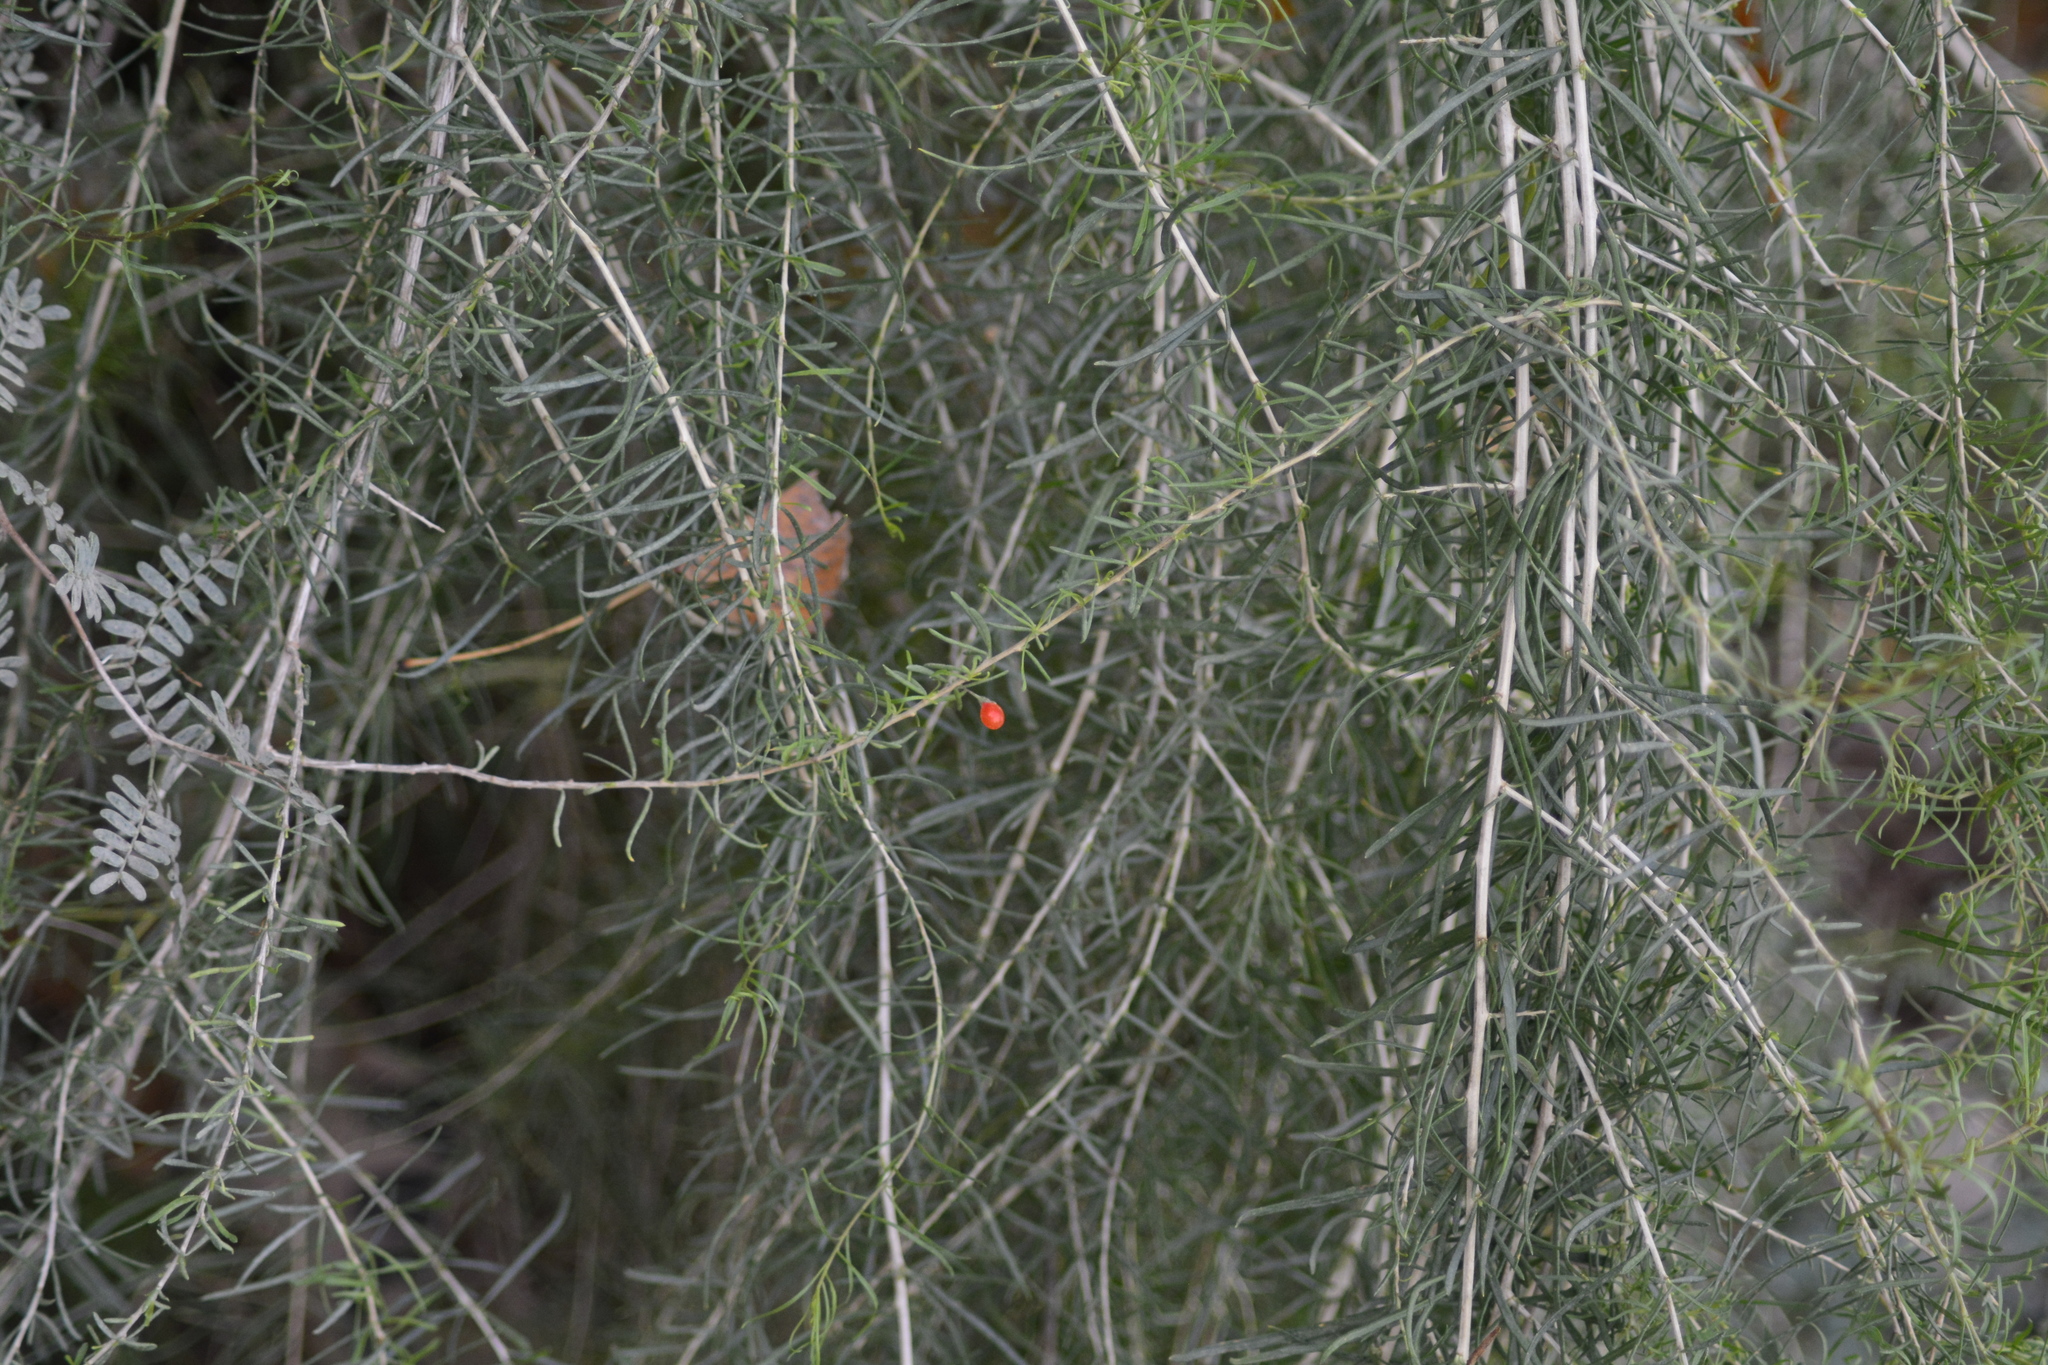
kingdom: Plantae
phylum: Tracheophyta
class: Magnoliopsida
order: Solanales
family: Solanaceae
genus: Lycium
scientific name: Lycium chilense
